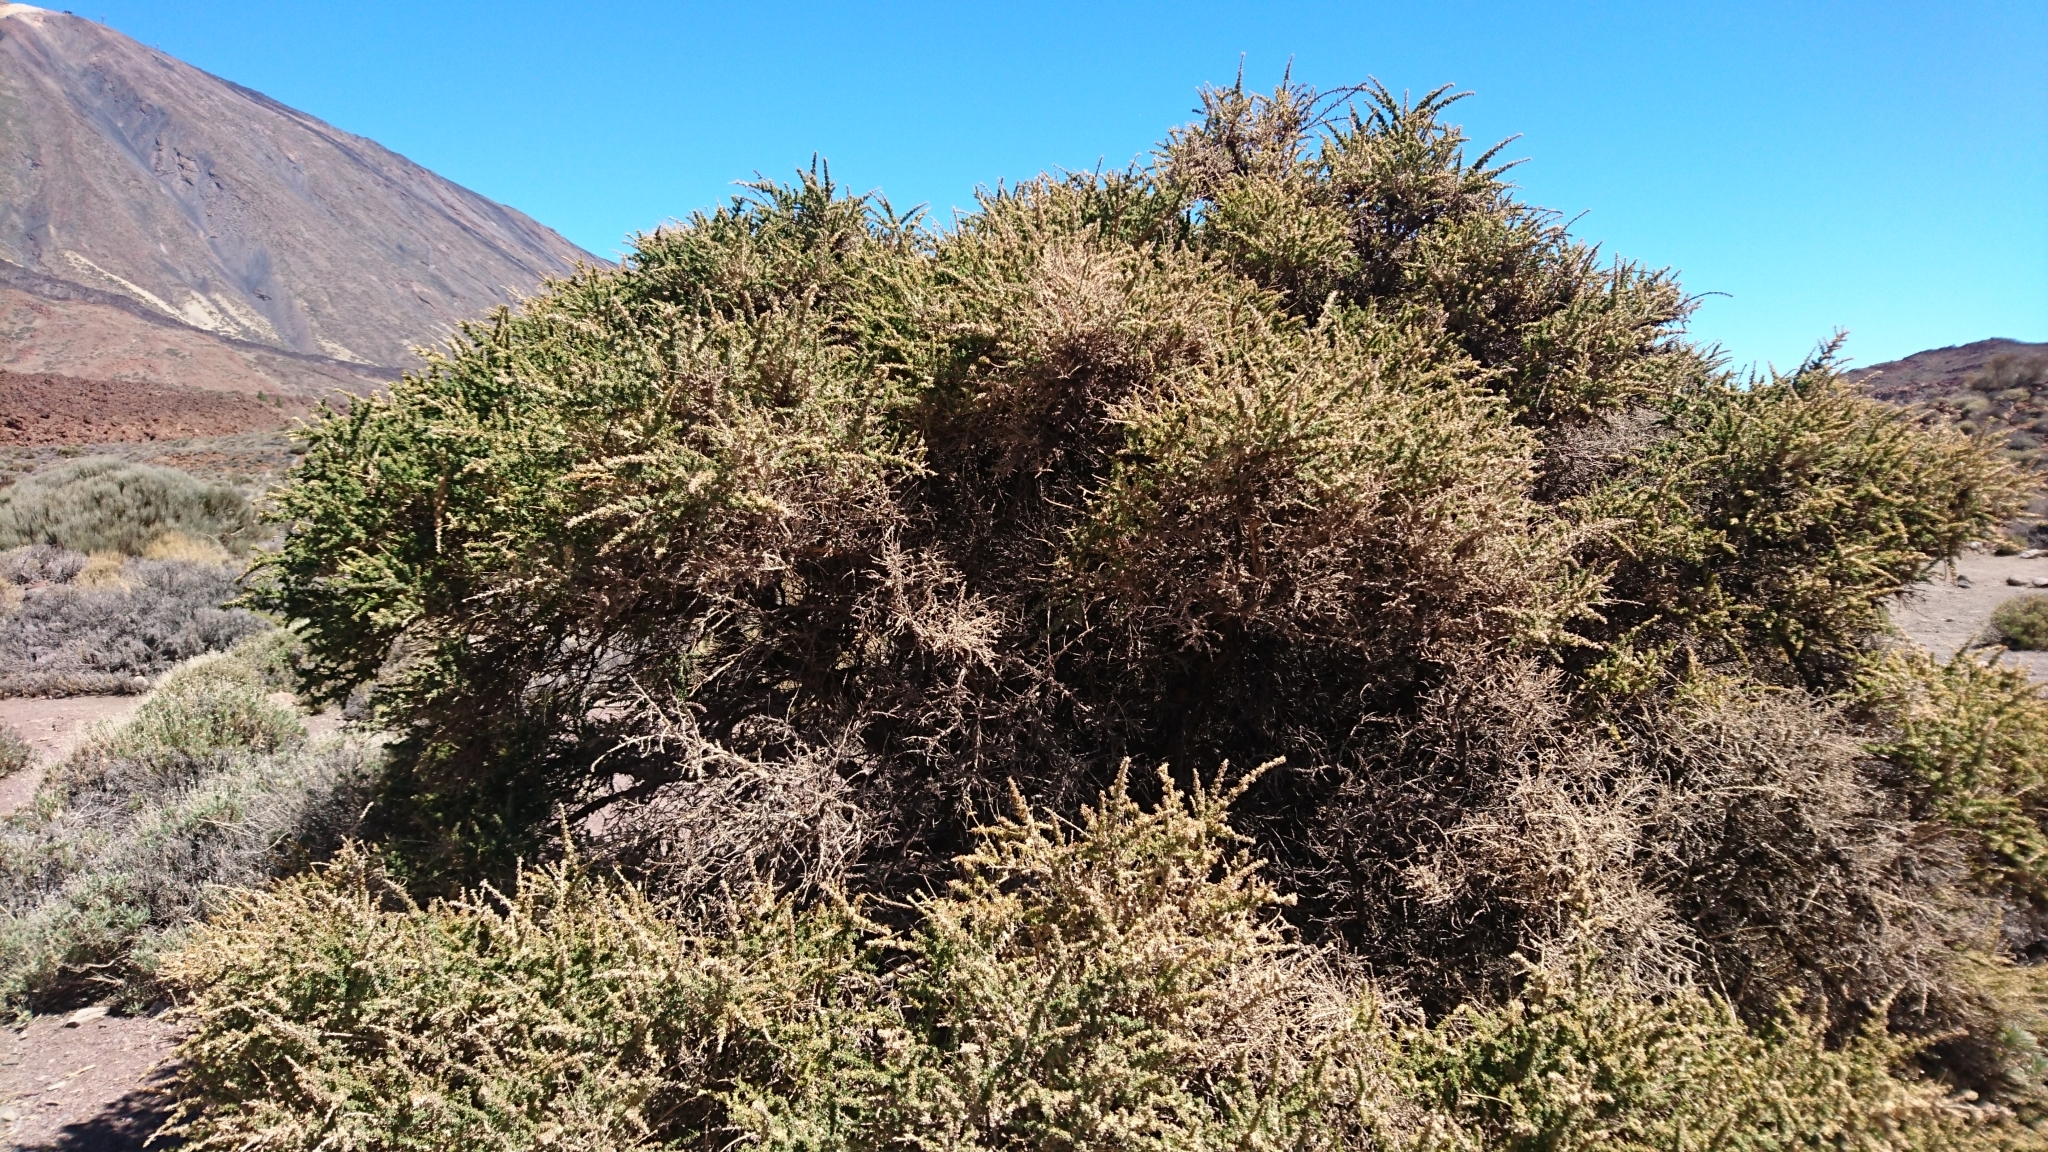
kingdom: Plantae
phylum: Tracheophyta
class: Magnoliopsida
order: Fabales
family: Fabaceae
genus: Adenocarpus
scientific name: Adenocarpus viscosus
